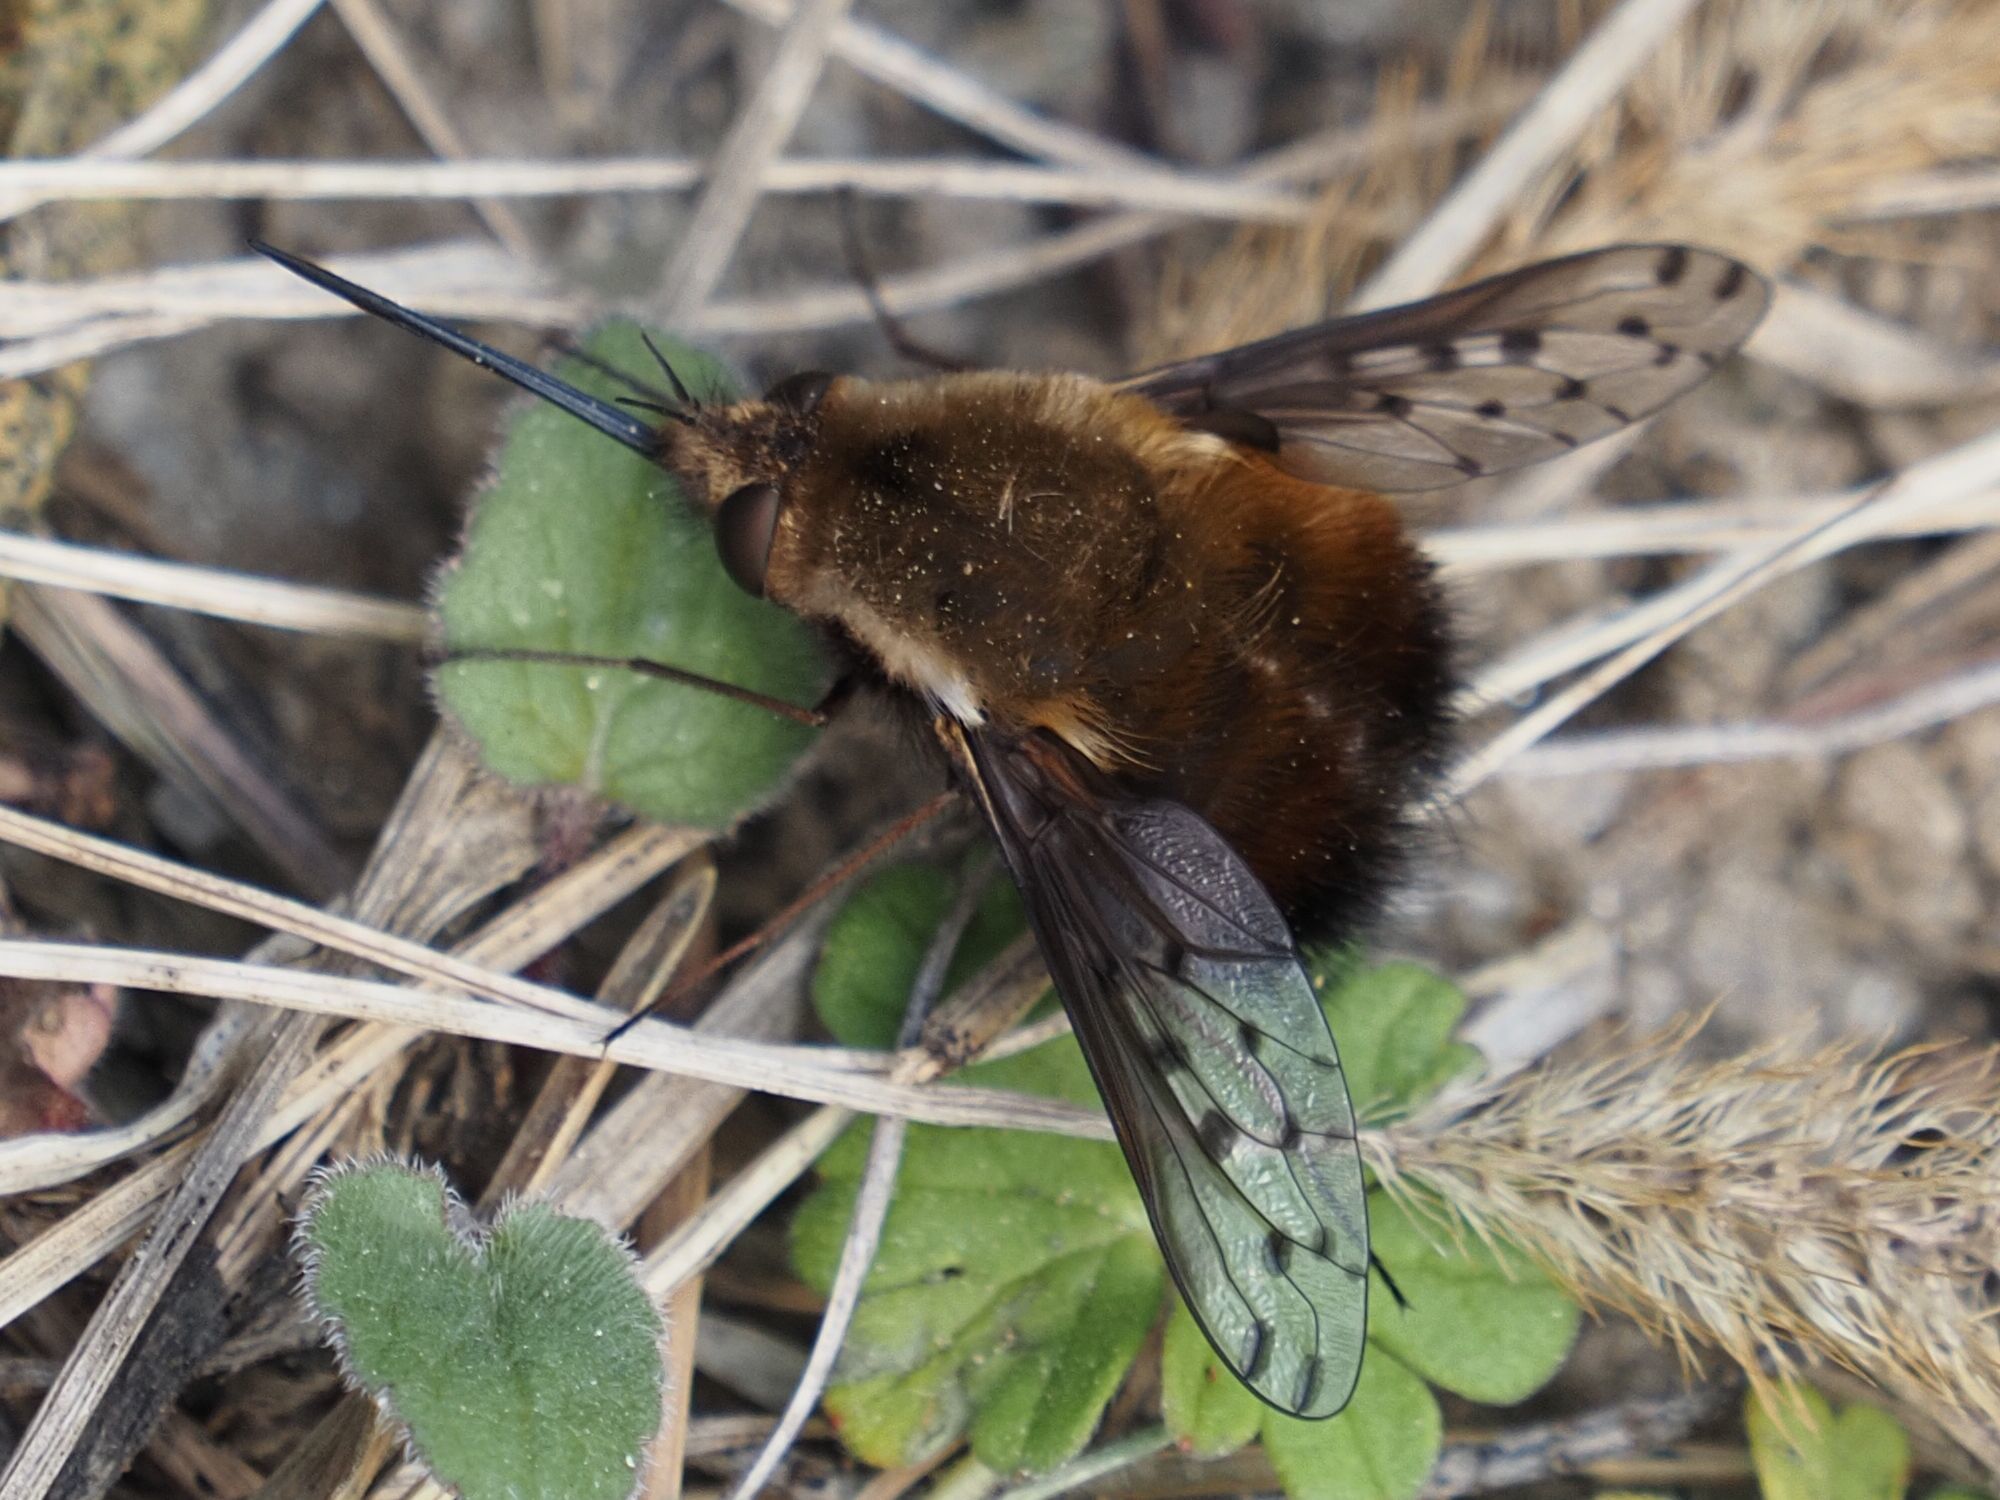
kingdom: Animalia
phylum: Arthropoda
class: Insecta
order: Diptera
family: Bombyliidae
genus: Bombylius
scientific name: Bombylius discolor
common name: Dotted bee-fly
